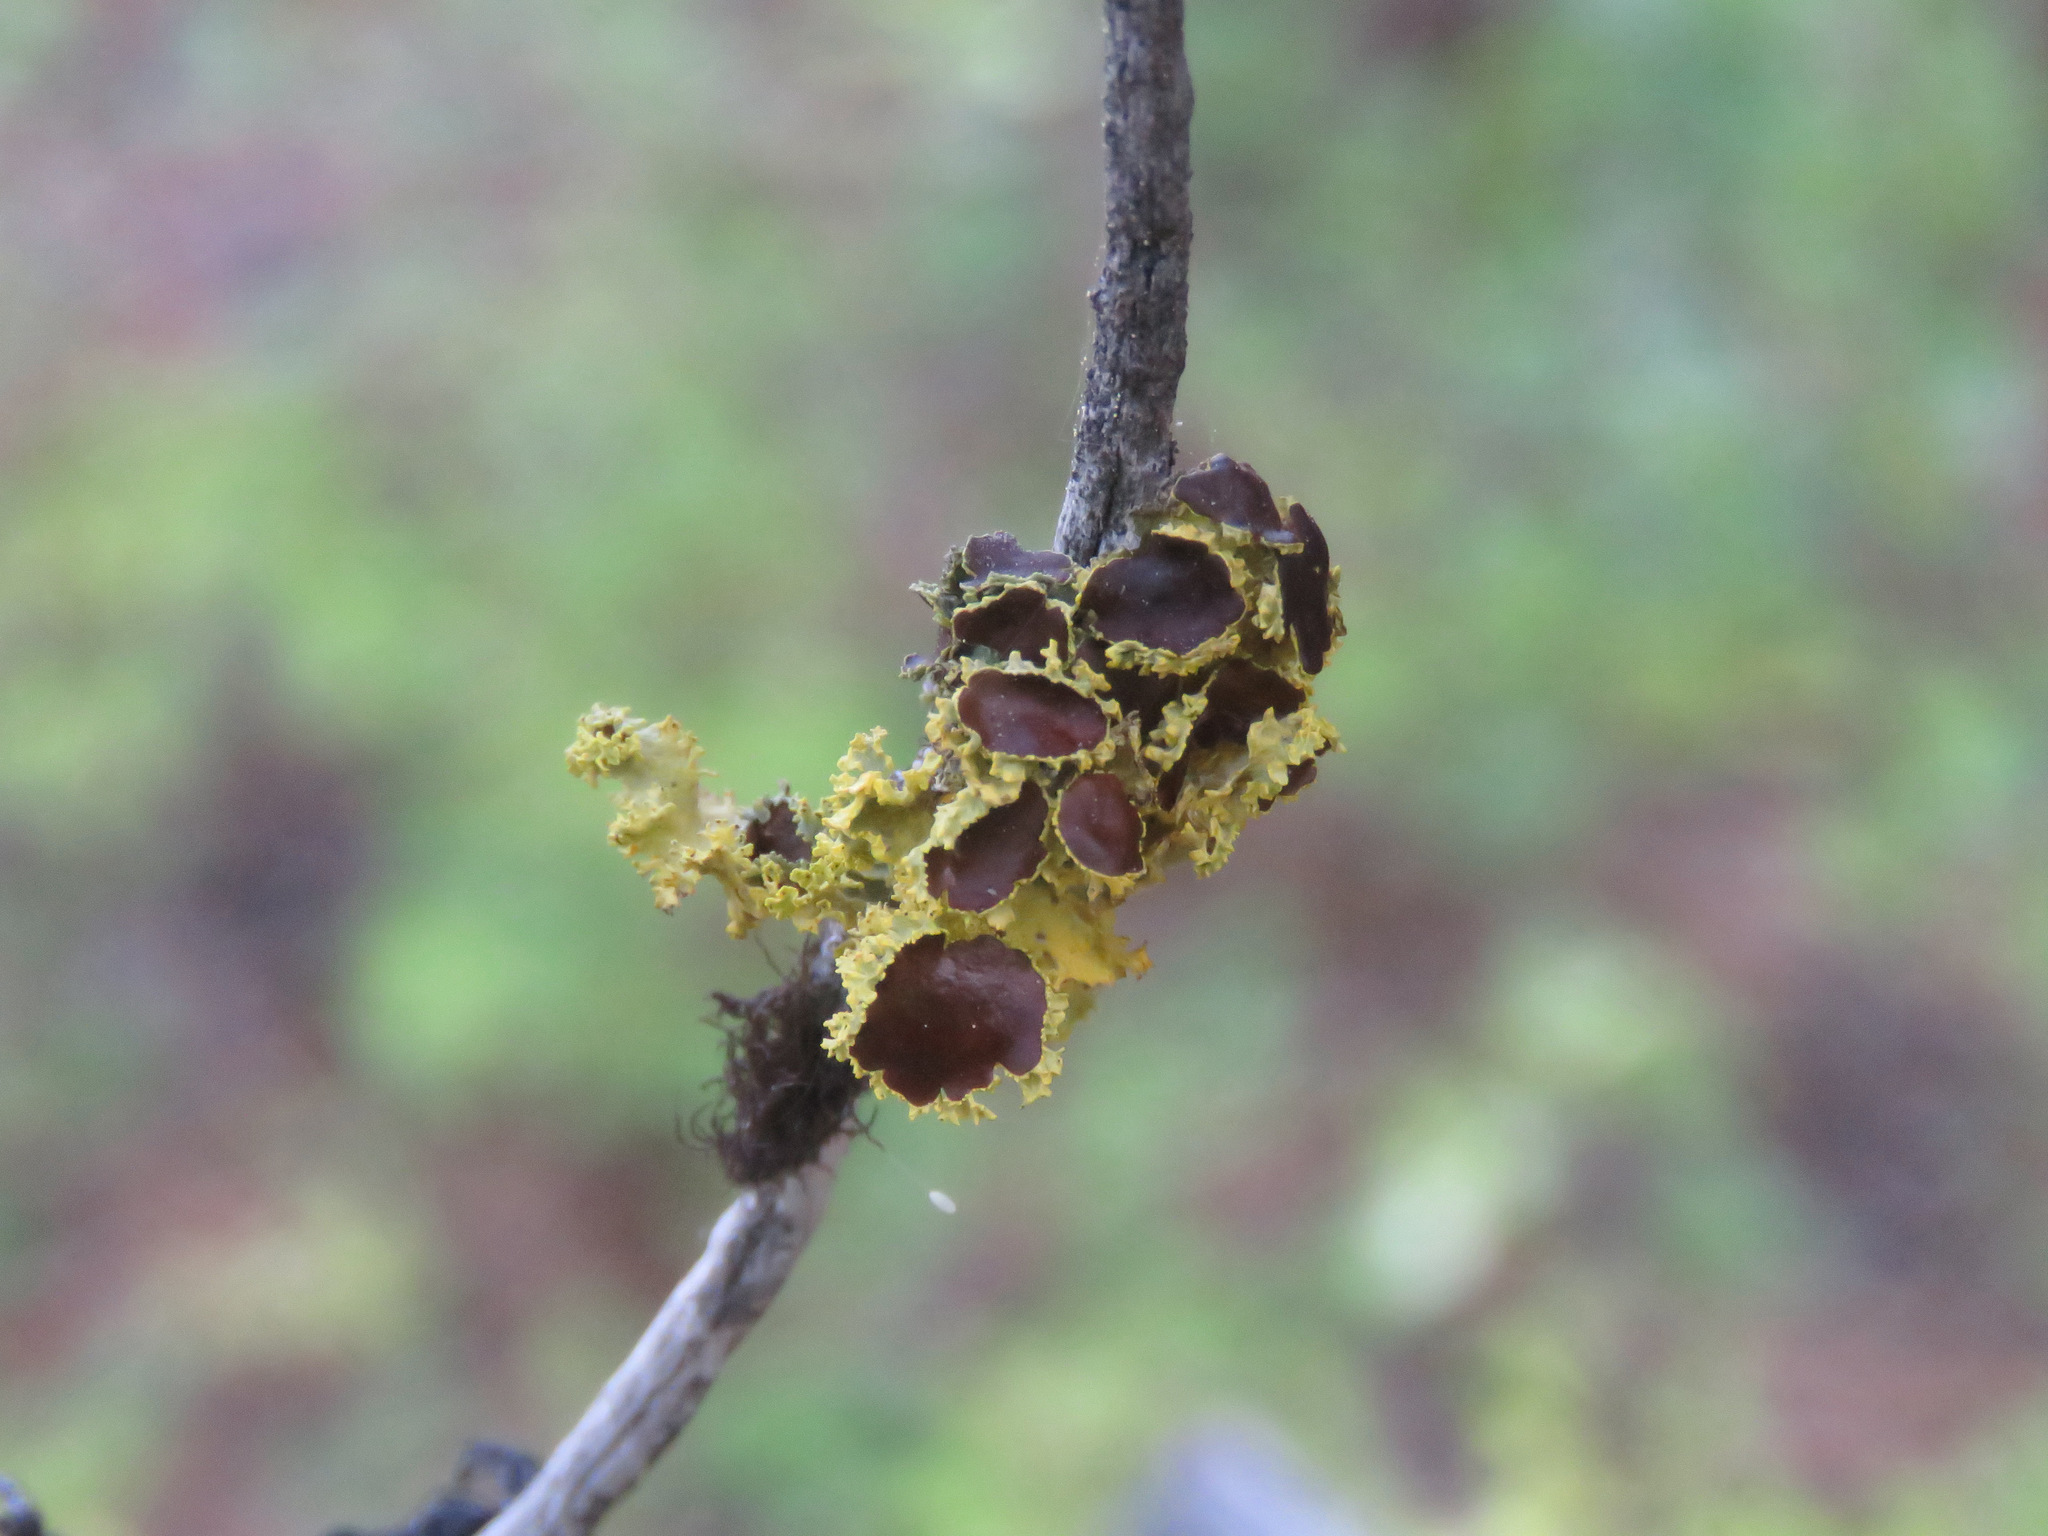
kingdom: Fungi
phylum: Ascomycota
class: Lecanoromycetes
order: Lecanorales
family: Parmeliaceae
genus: Vulpicida
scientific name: Vulpicida canadensis
